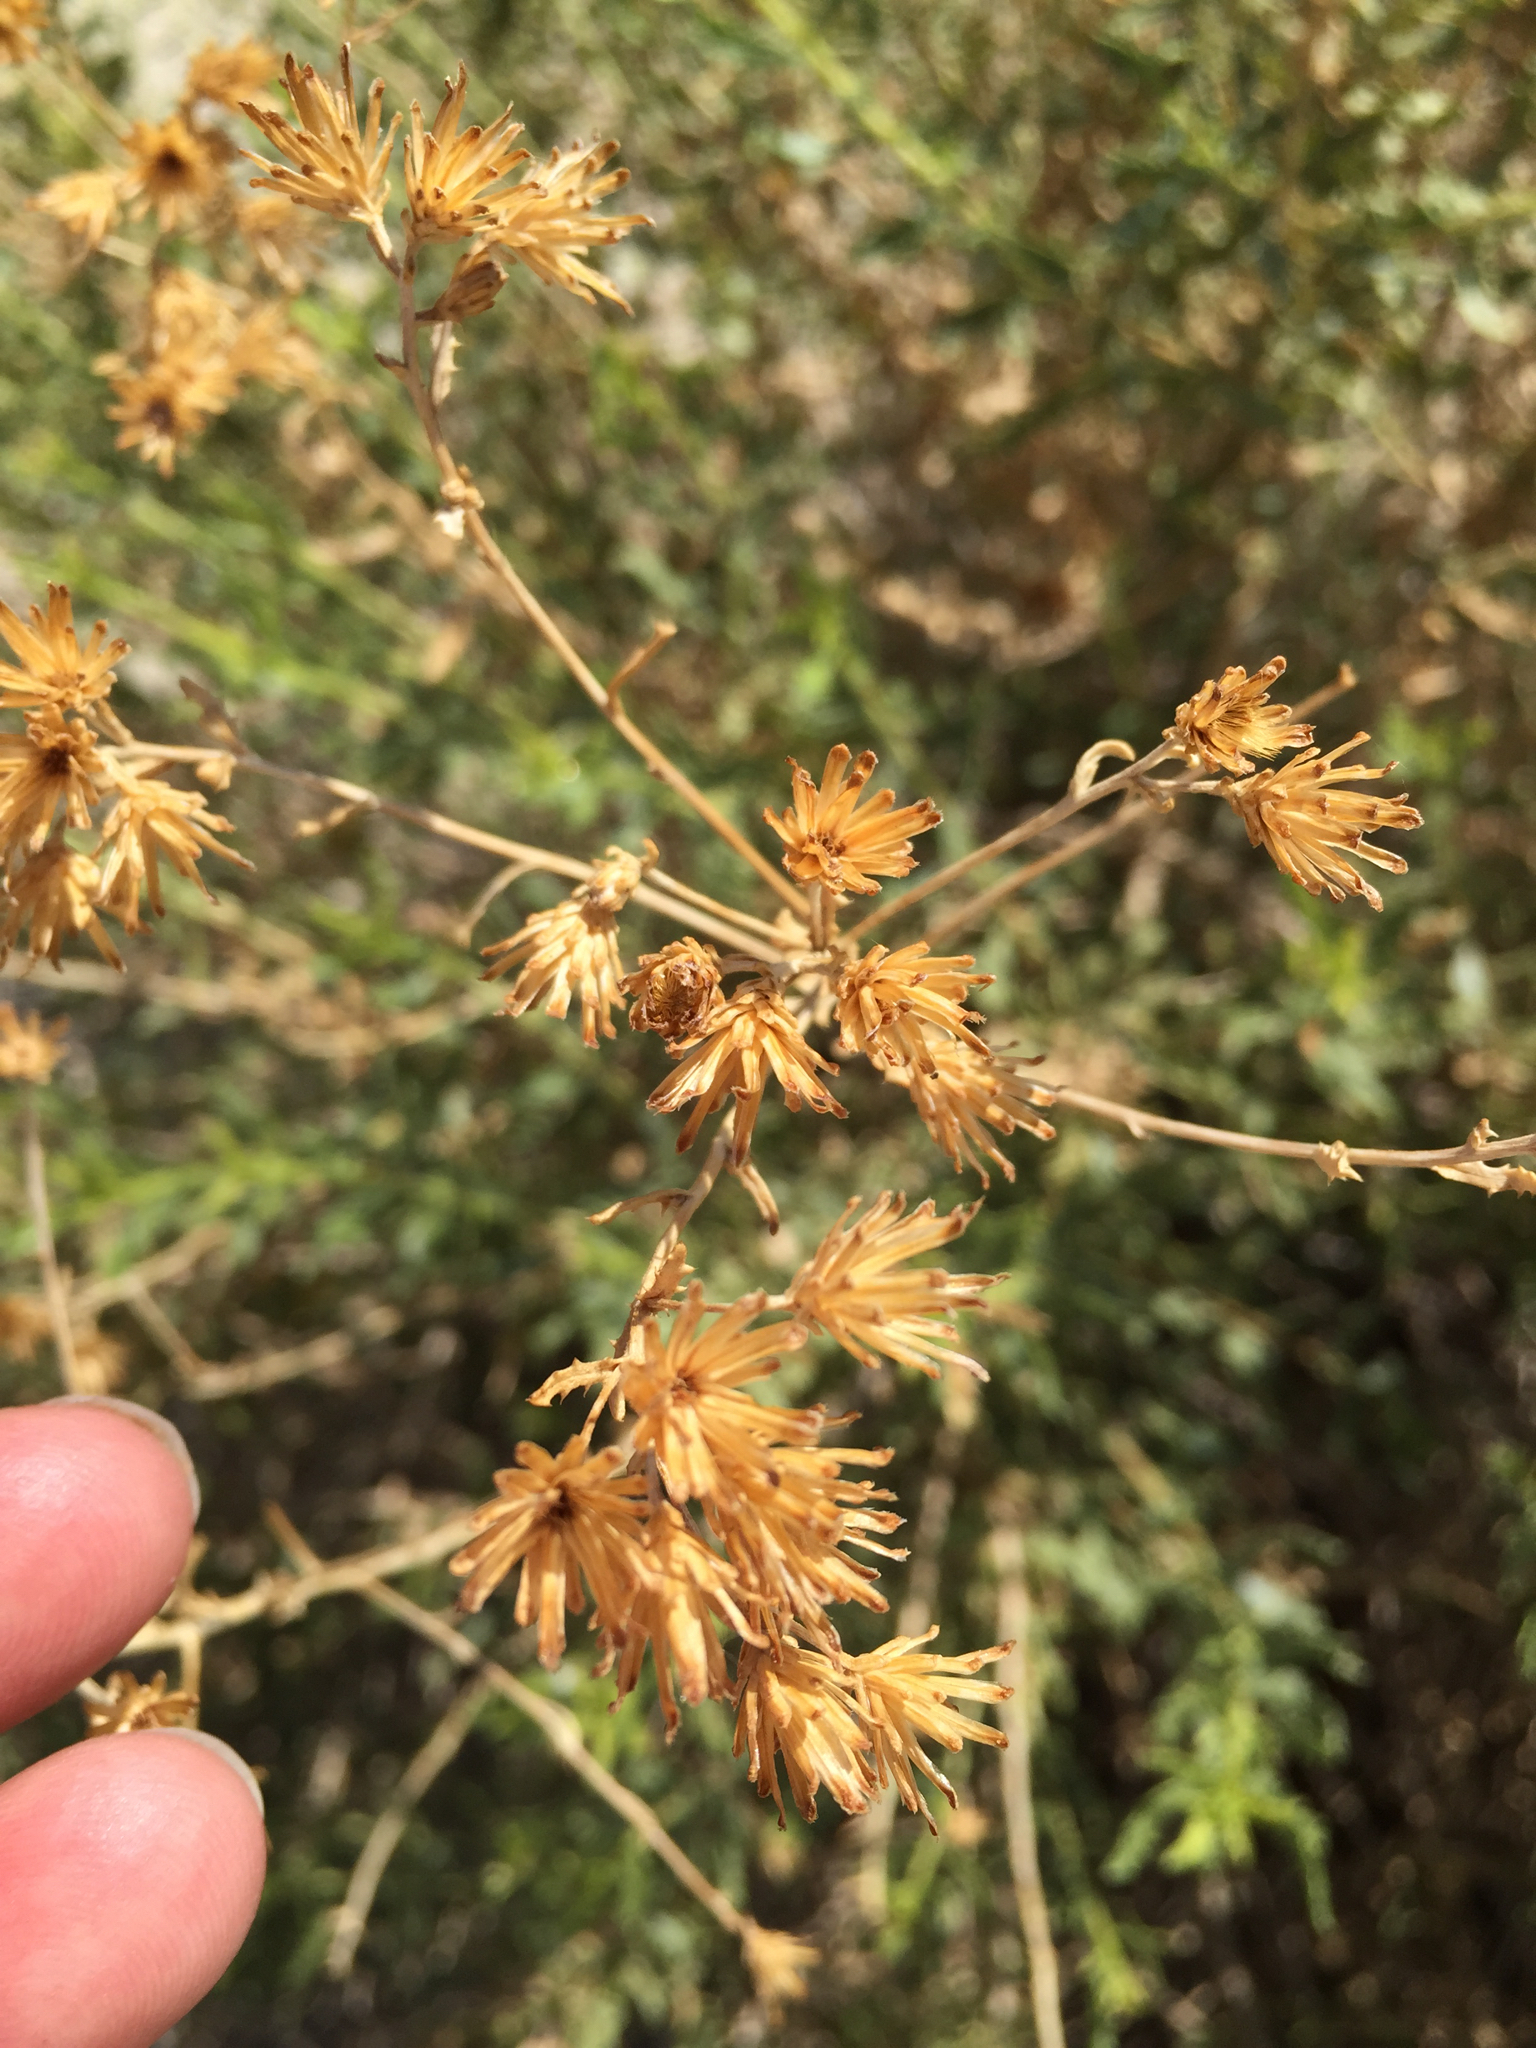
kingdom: Plantae
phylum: Tracheophyta
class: Magnoliopsida
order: Asterales
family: Asteraceae
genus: Isocoma
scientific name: Isocoma acradenia
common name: Alkali jimmyweed
